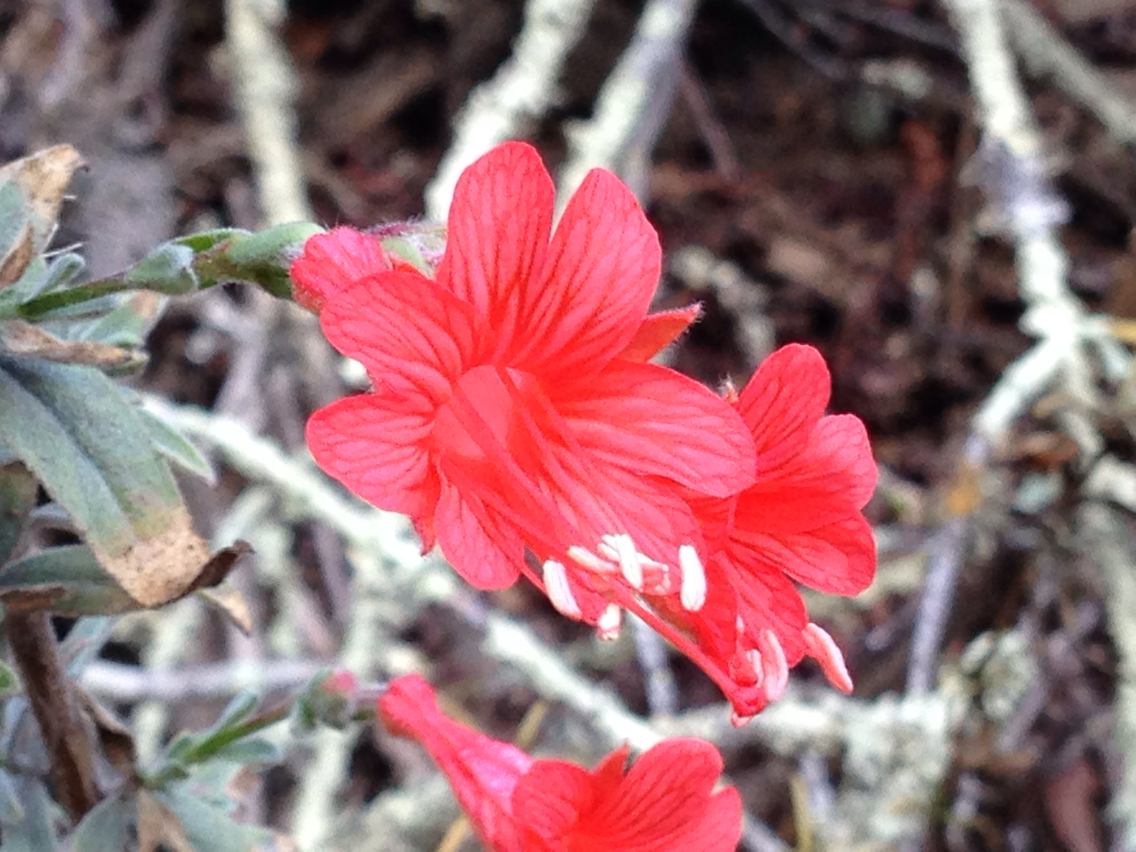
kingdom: Plantae
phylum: Tracheophyta
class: Magnoliopsida
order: Myrtales
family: Onagraceae
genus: Epilobium
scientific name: Epilobium canum
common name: California-fuchsia
